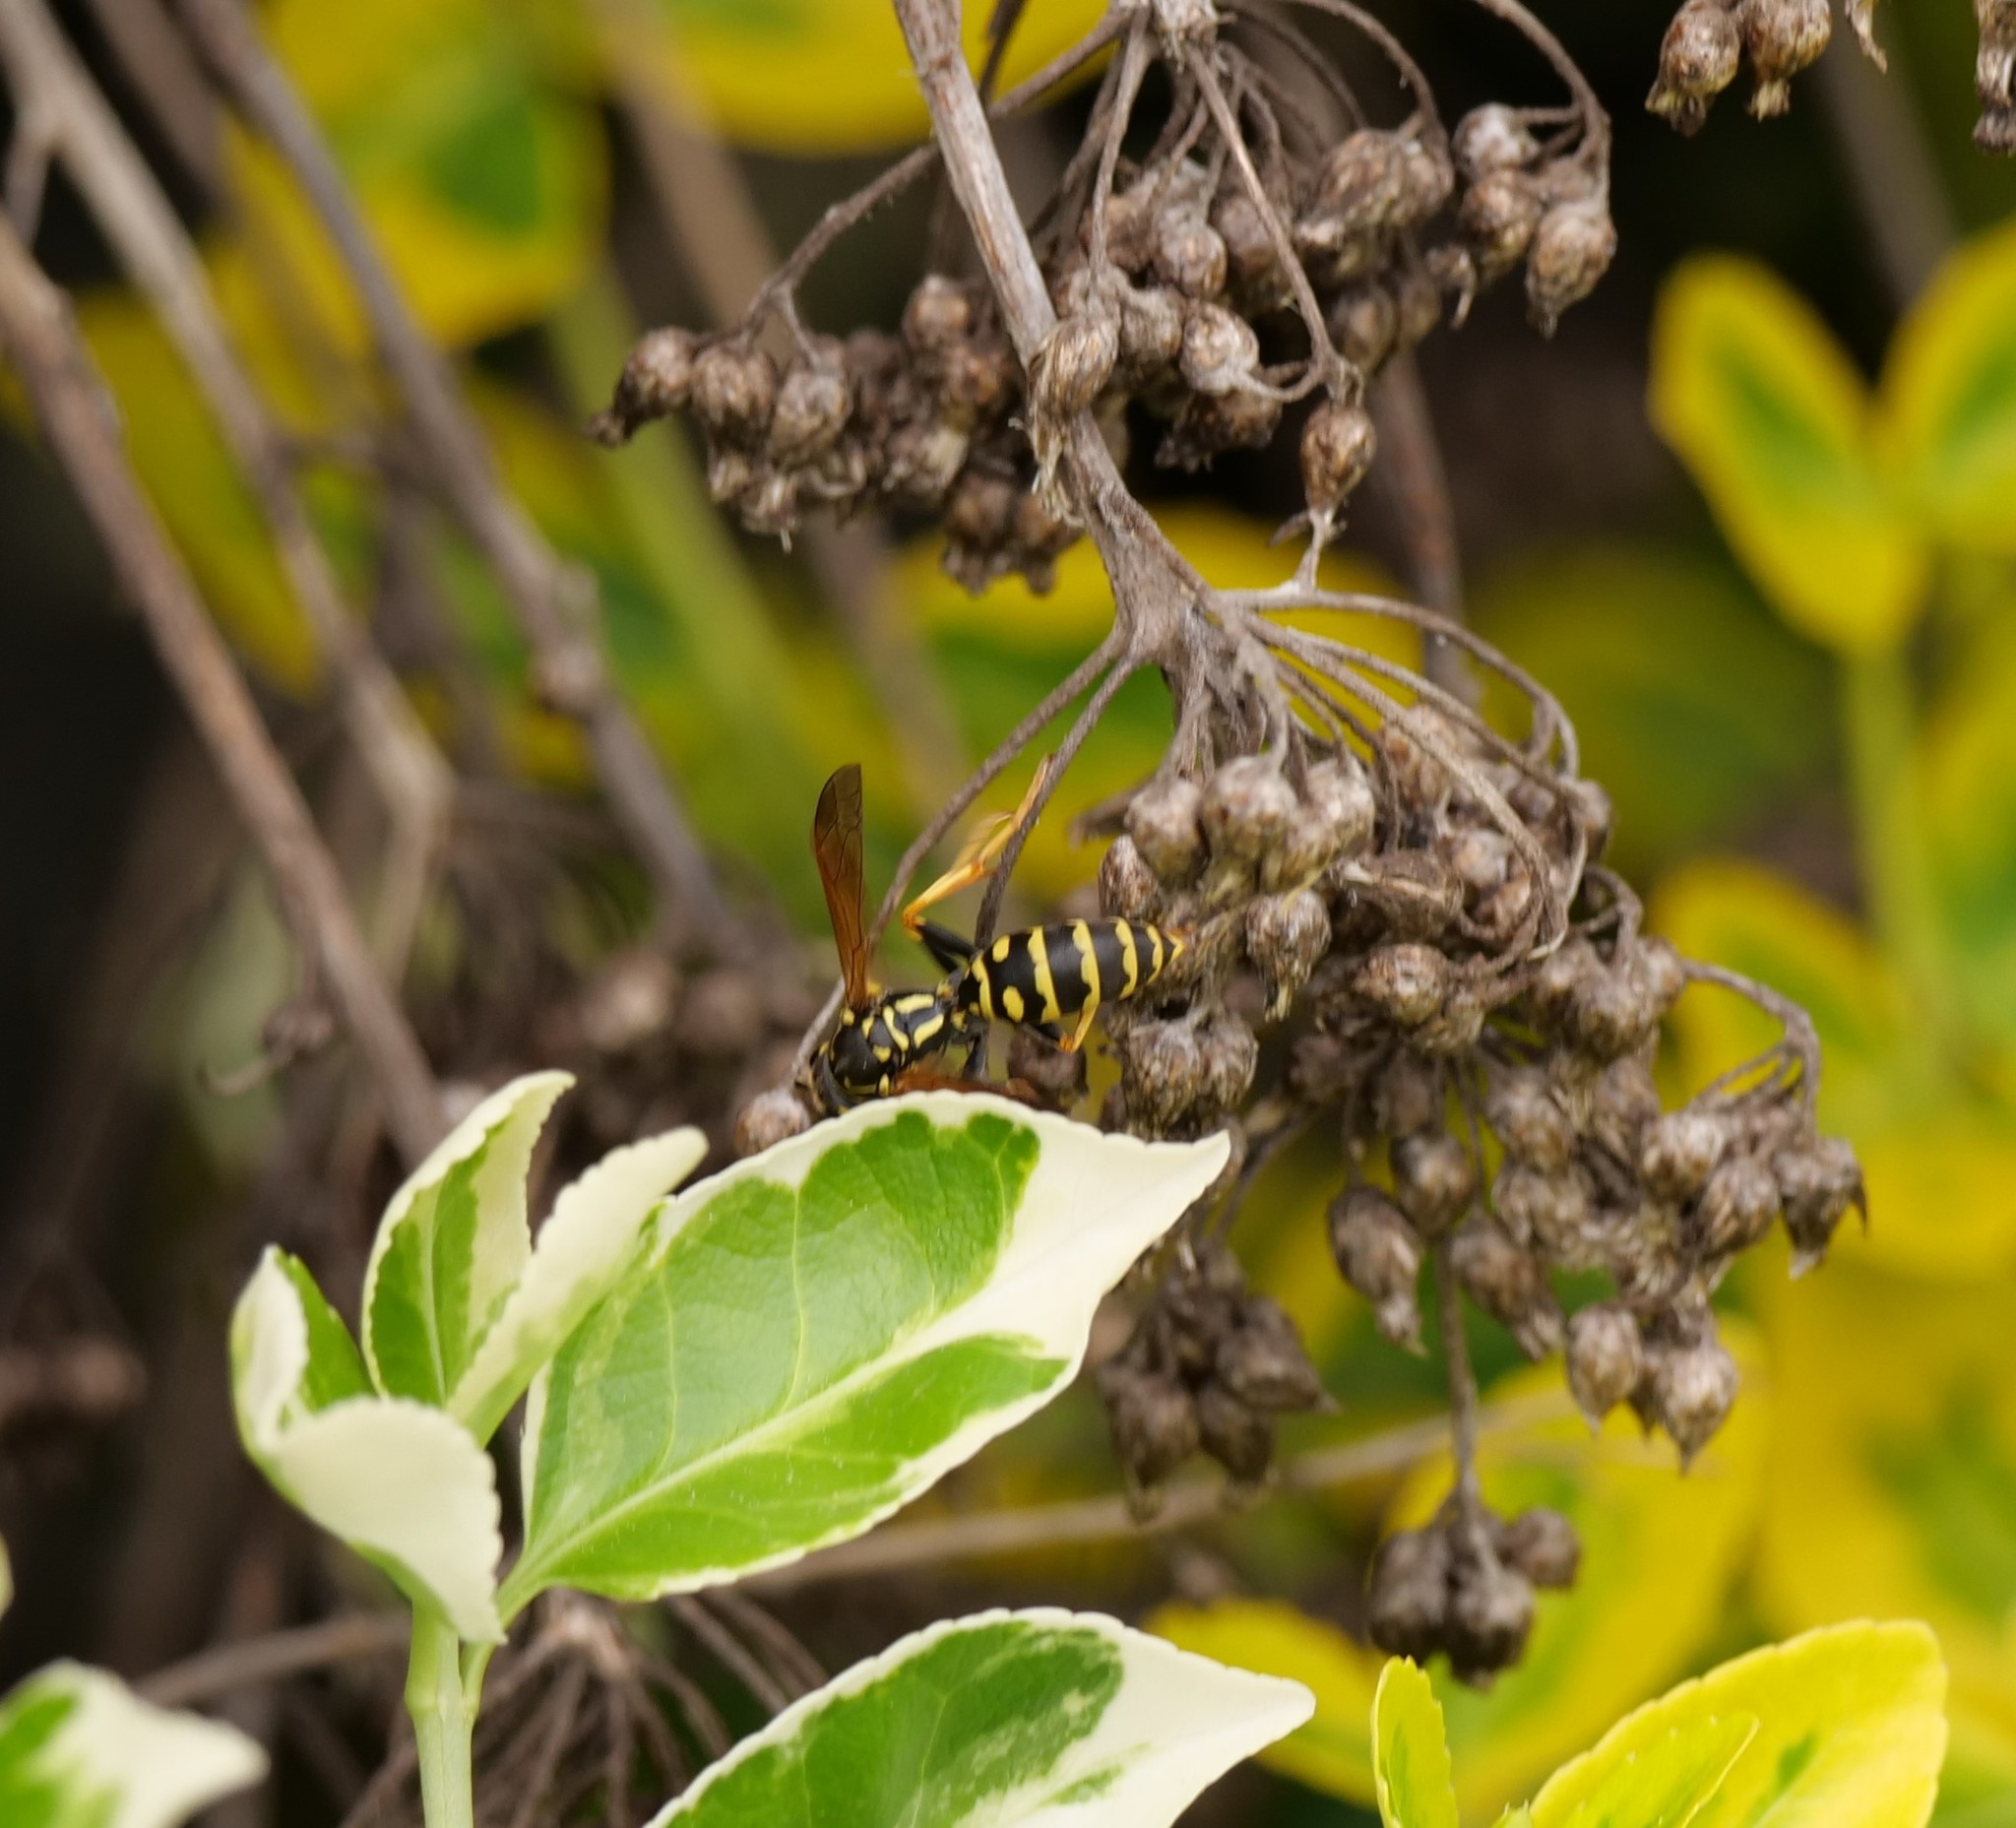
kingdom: Animalia
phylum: Arthropoda
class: Insecta
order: Hymenoptera
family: Eumenidae
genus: Polistes
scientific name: Polistes dominula
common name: Paper wasp
